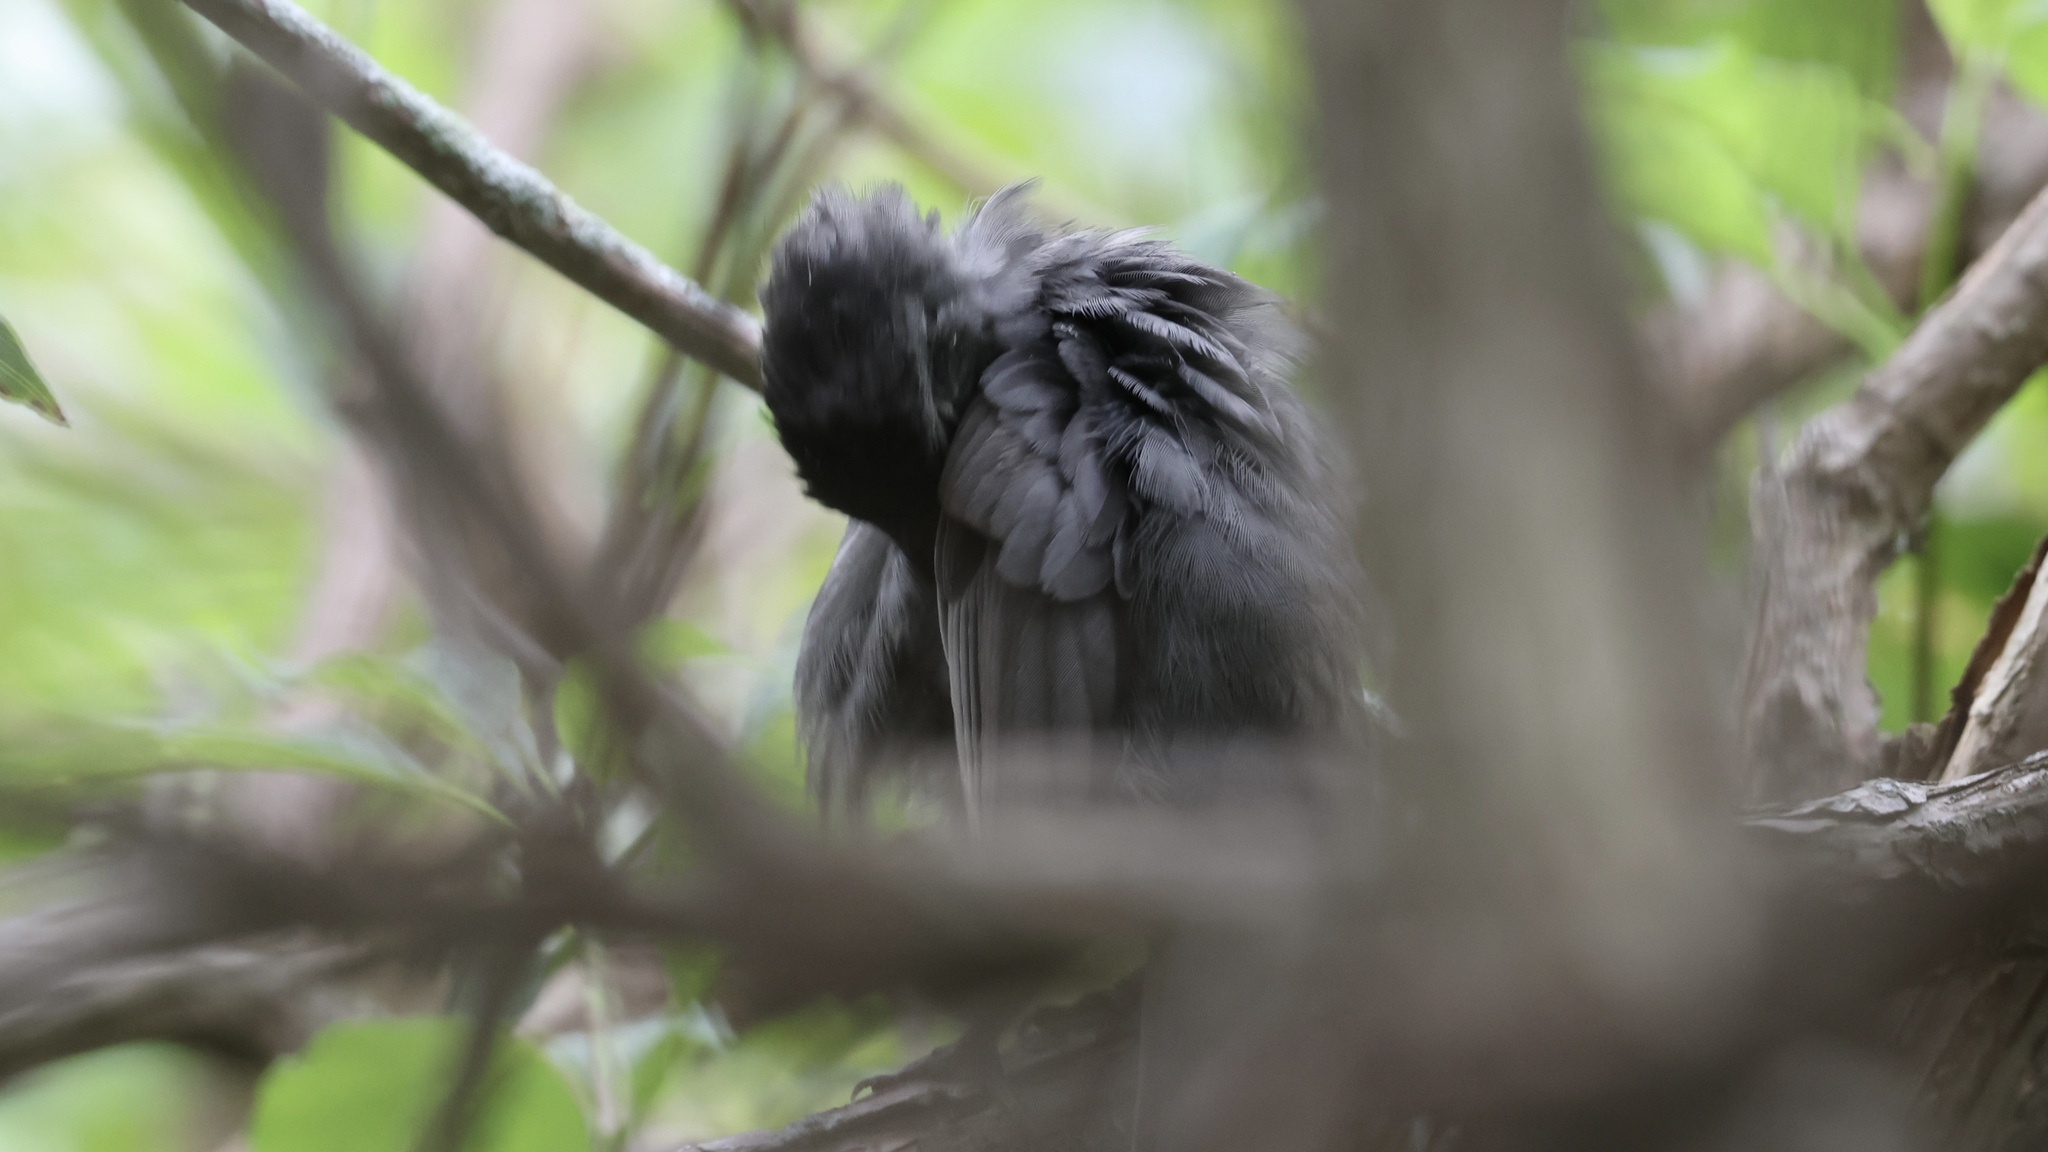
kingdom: Animalia
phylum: Chordata
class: Aves
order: Passeriformes
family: Mimidae
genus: Dumetella
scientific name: Dumetella carolinensis
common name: Gray catbird
